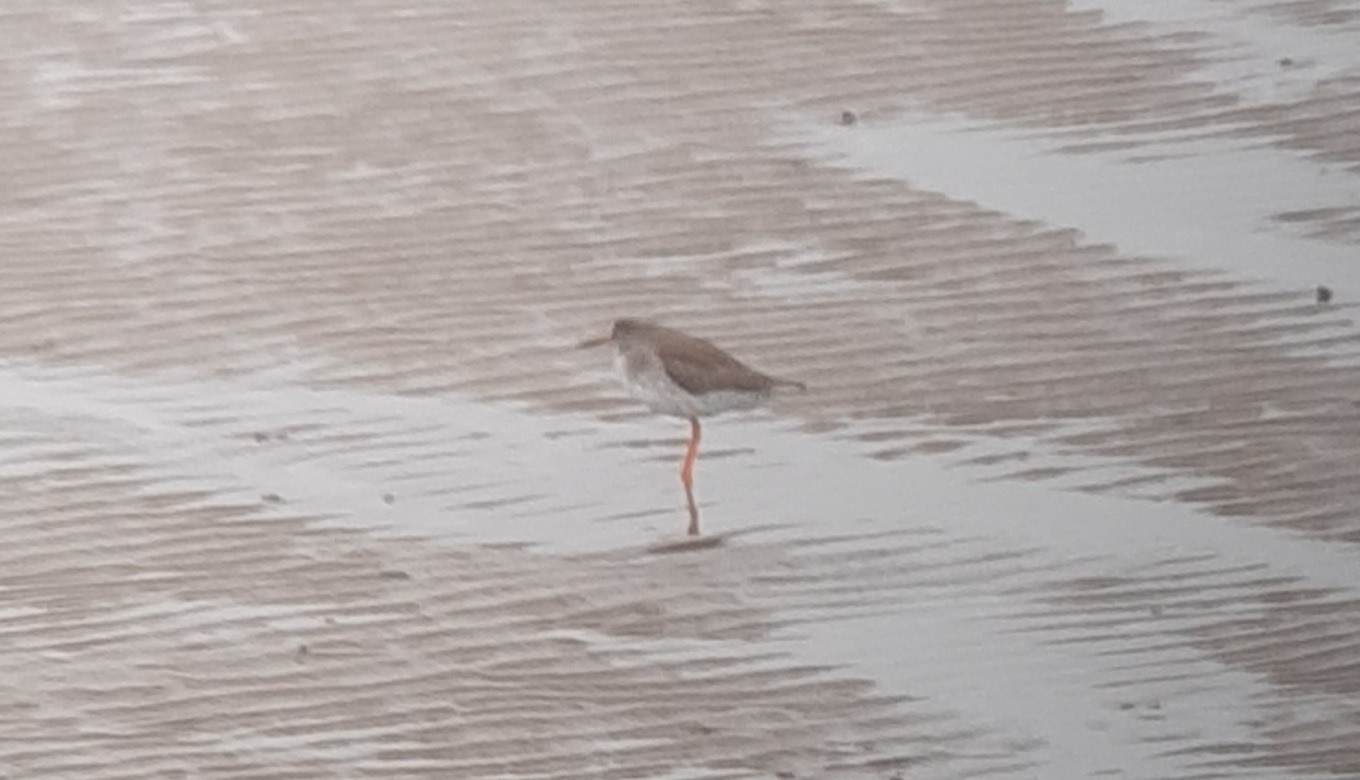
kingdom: Animalia
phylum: Chordata
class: Aves
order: Charadriiformes
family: Scolopacidae
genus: Tringa
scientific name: Tringa totanus
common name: Common redshank
